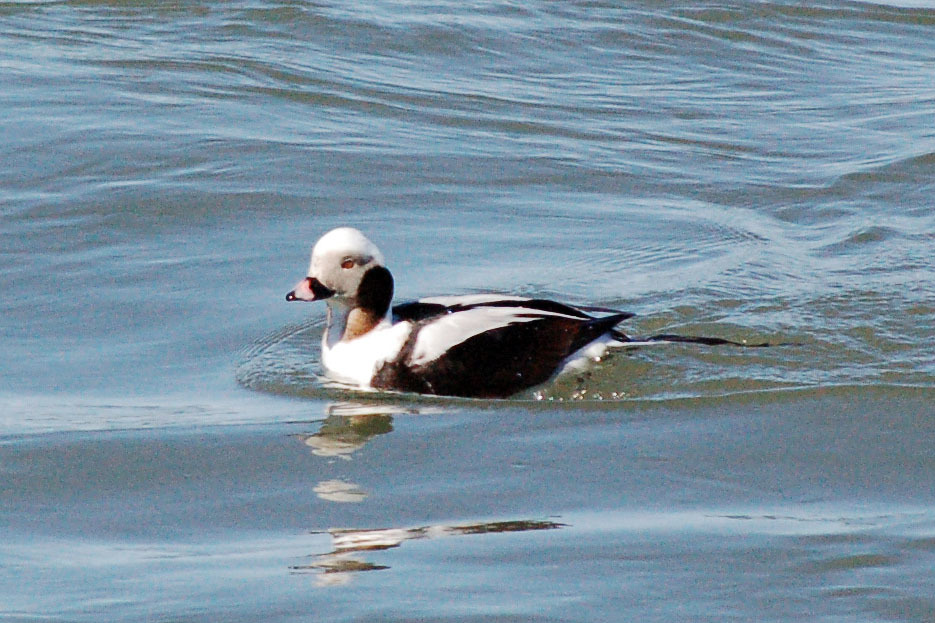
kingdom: Animalia
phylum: Chordata
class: Aves
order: Anseriformes
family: Anatidae
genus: Clangula
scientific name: Clangula hyemalis
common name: Long-tailed duck
